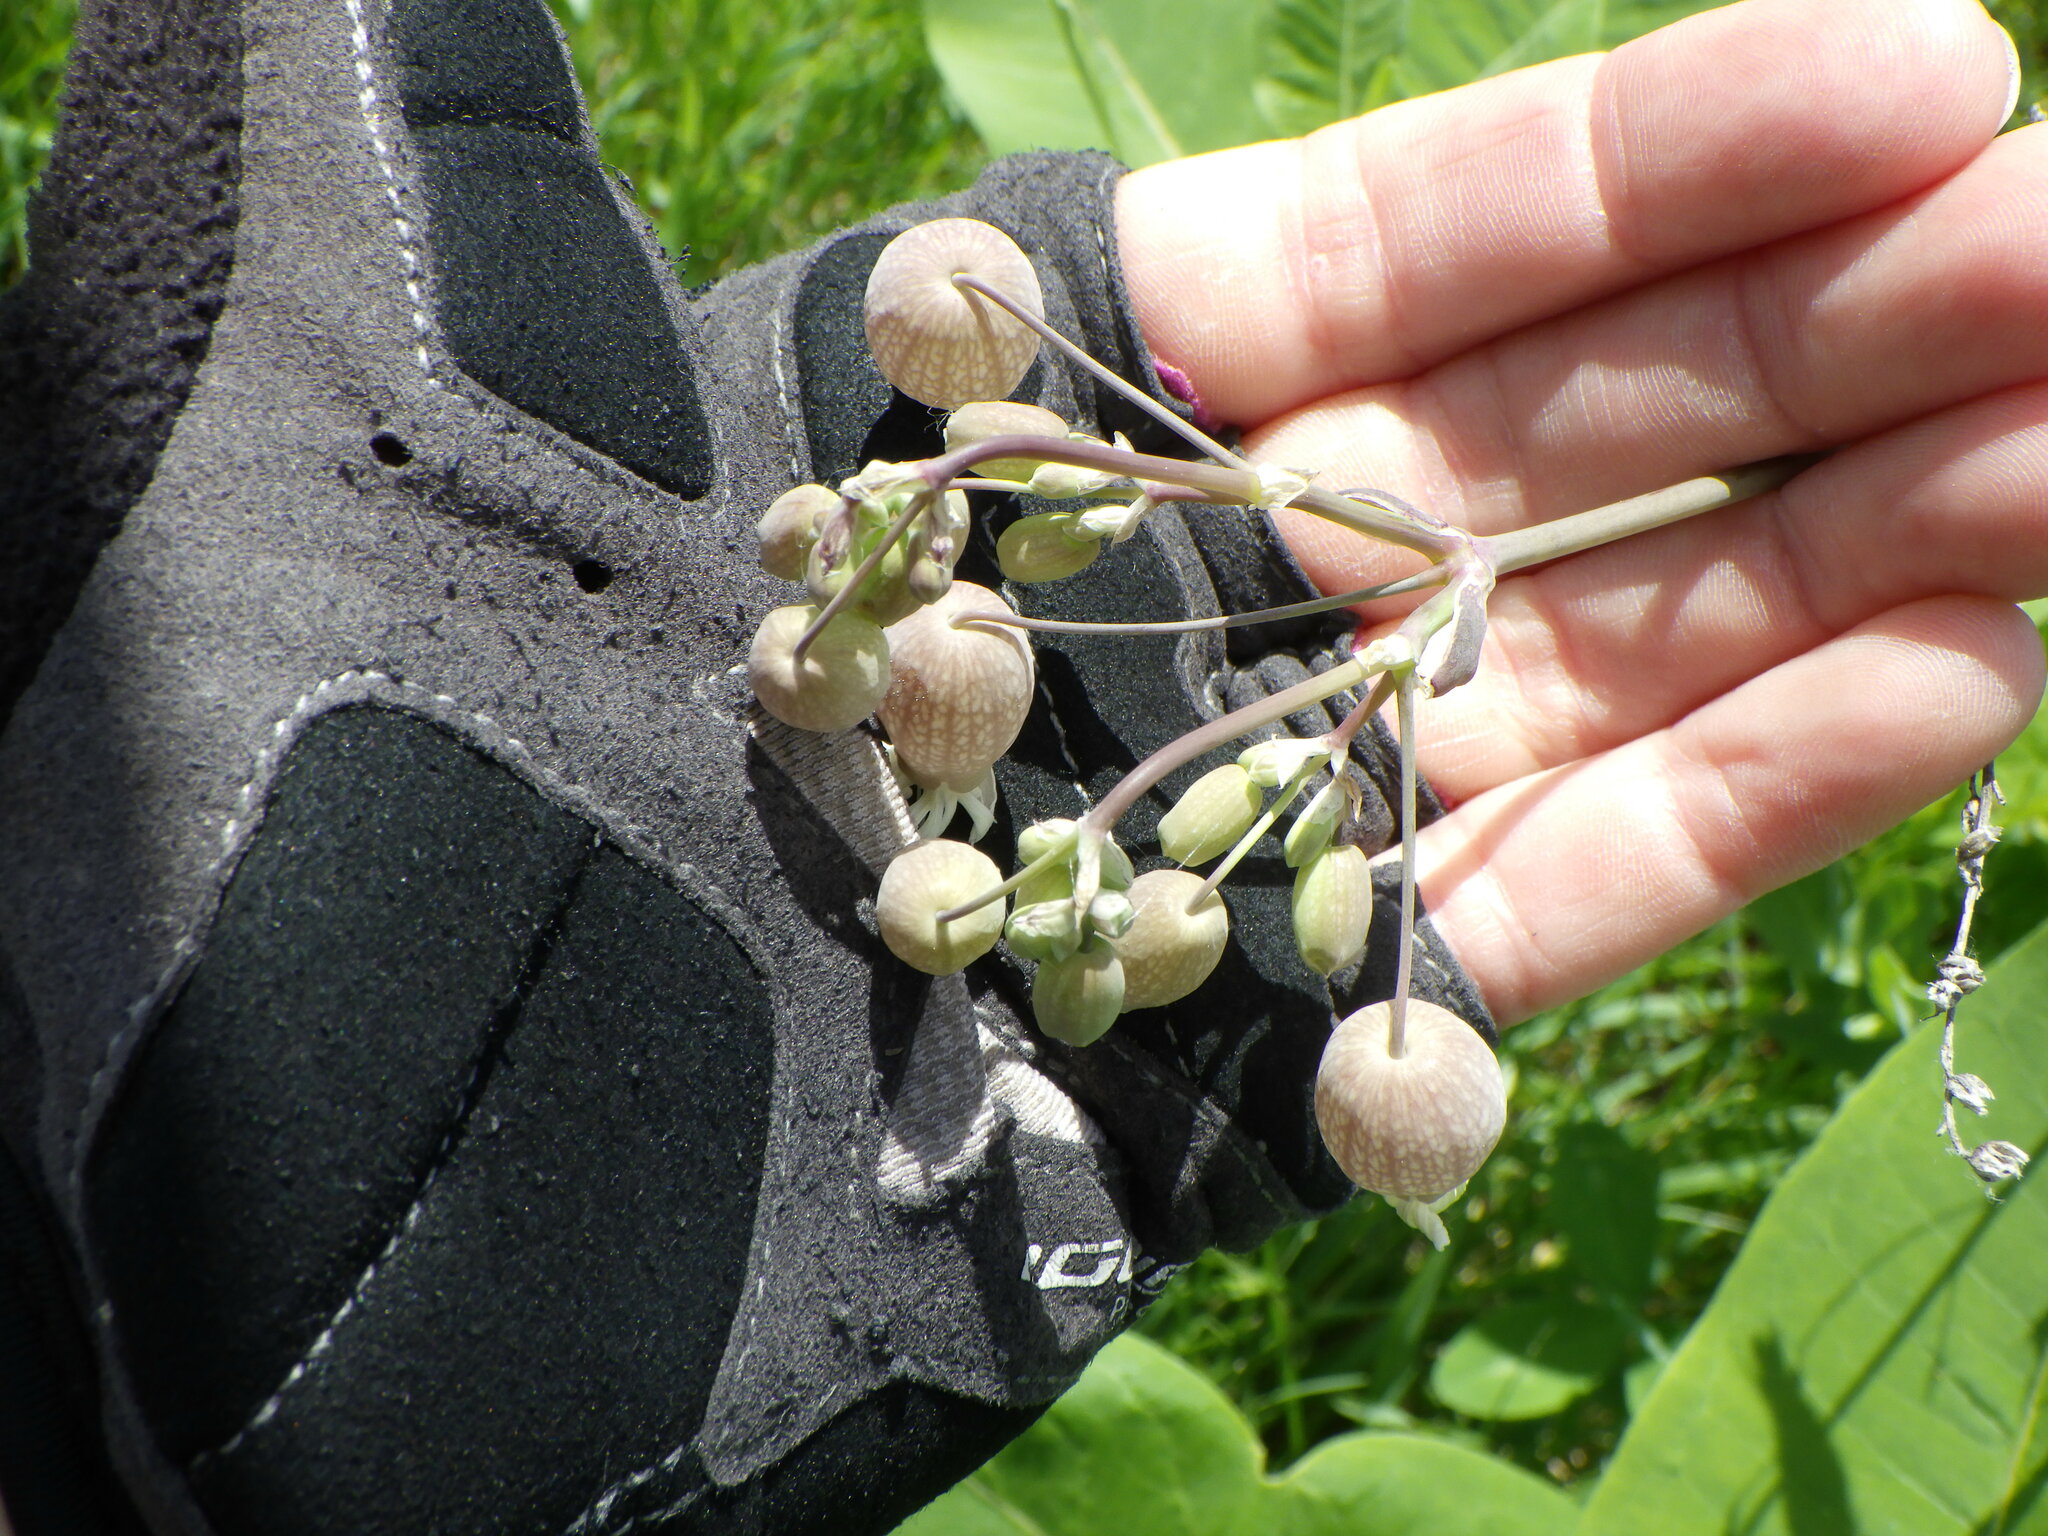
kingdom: Plantae
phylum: Tracheophyta
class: Magnoliopsida
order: Caryophyllales
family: Caryophyllaceae
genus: Silene
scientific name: Silene vulgaris
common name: Bladder campion
